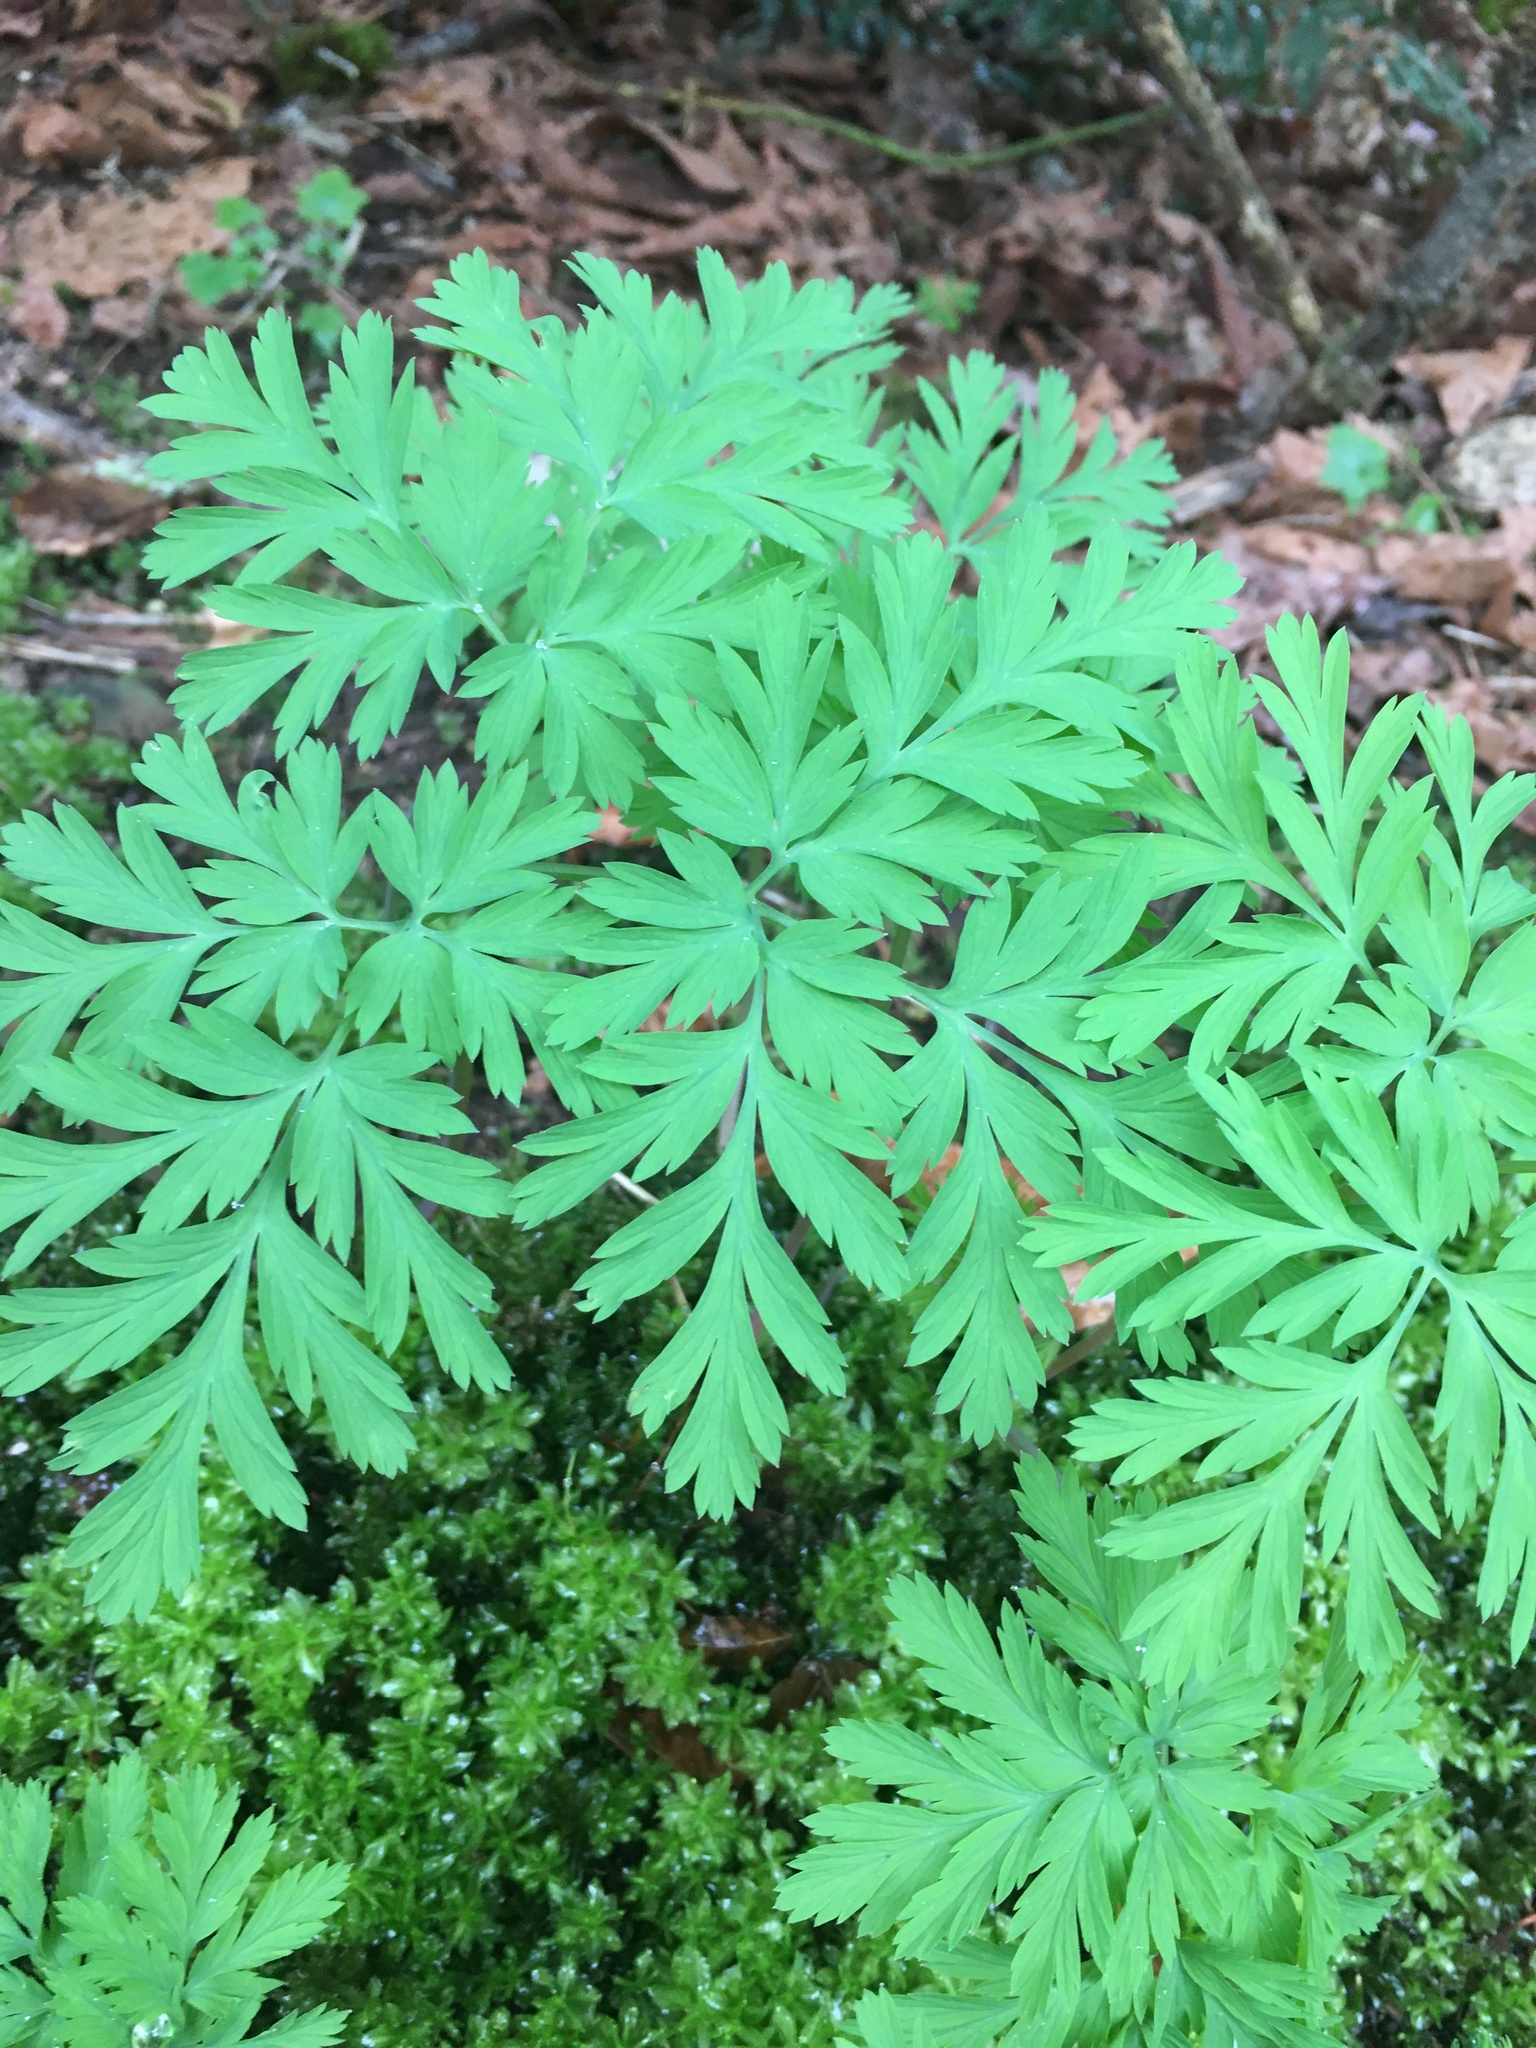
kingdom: Plantae
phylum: Tracheophyta
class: Magnoliopsida
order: Ranunculales
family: Papaveraceae
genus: Dicentra
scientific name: Dicentra formosa
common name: Bleeding-heart
